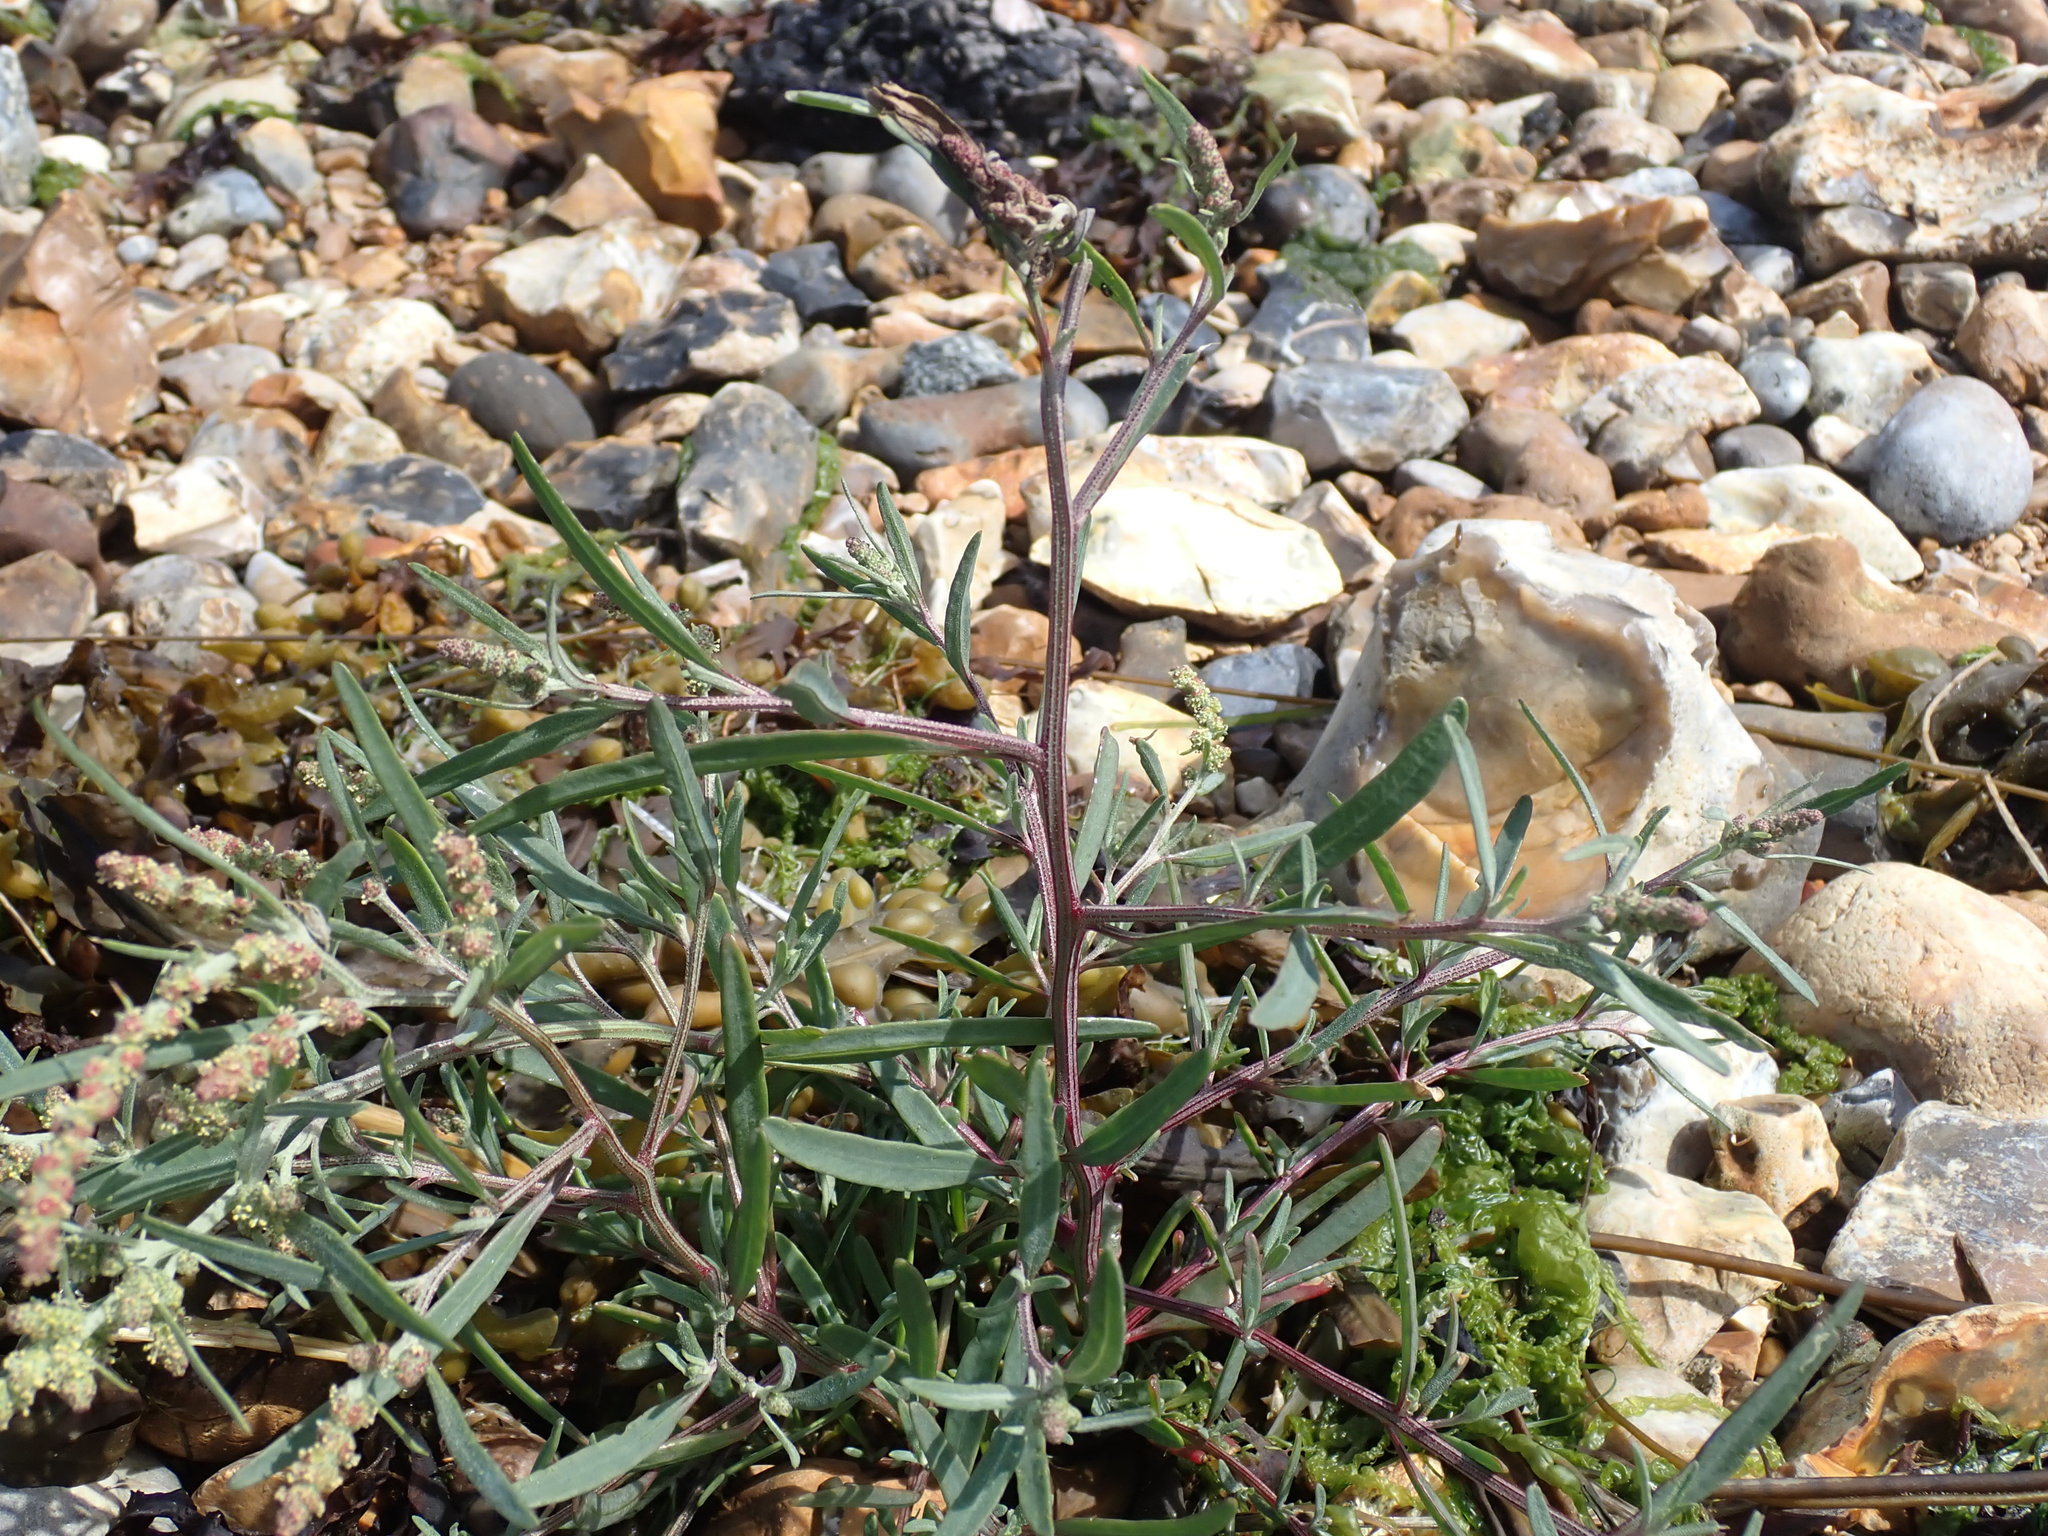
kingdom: Plantae
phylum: Tracheophyta
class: Magnoliopsida
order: Caryophyllales
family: Amaranthaceae
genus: Atriplex
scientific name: Atriplex littoralis
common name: Grass-leaved orache
